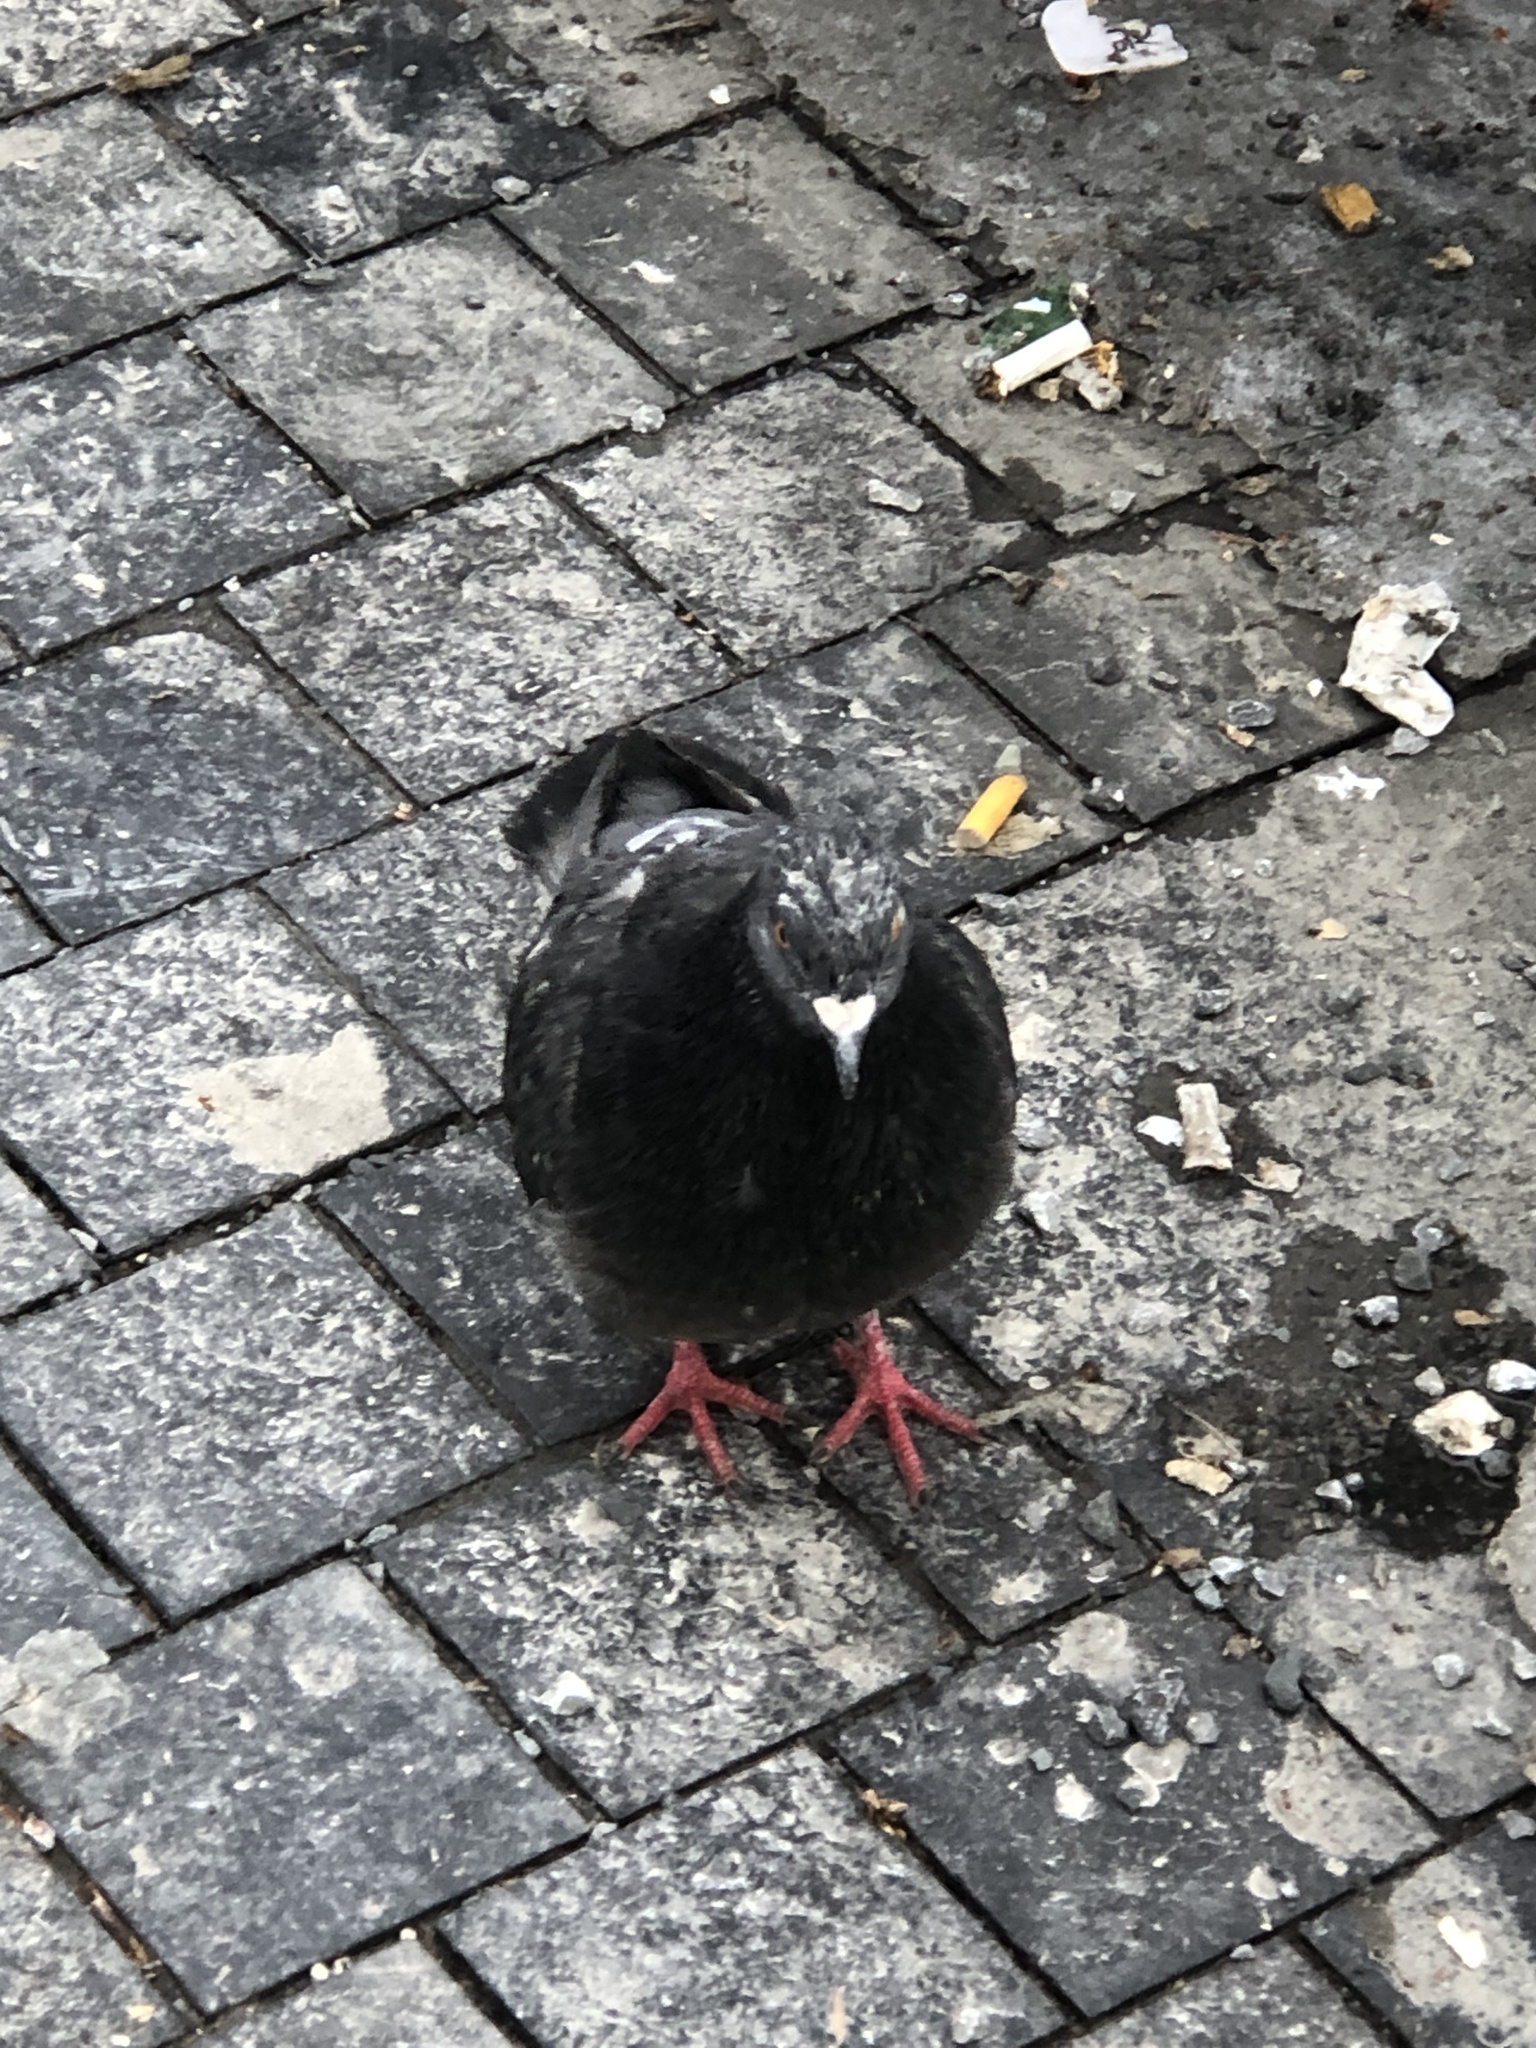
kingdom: Animalia
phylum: Chordata
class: Aves
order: Columbiformes
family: Columbidae
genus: Columba
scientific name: Columba livia
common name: Rock pigeon
